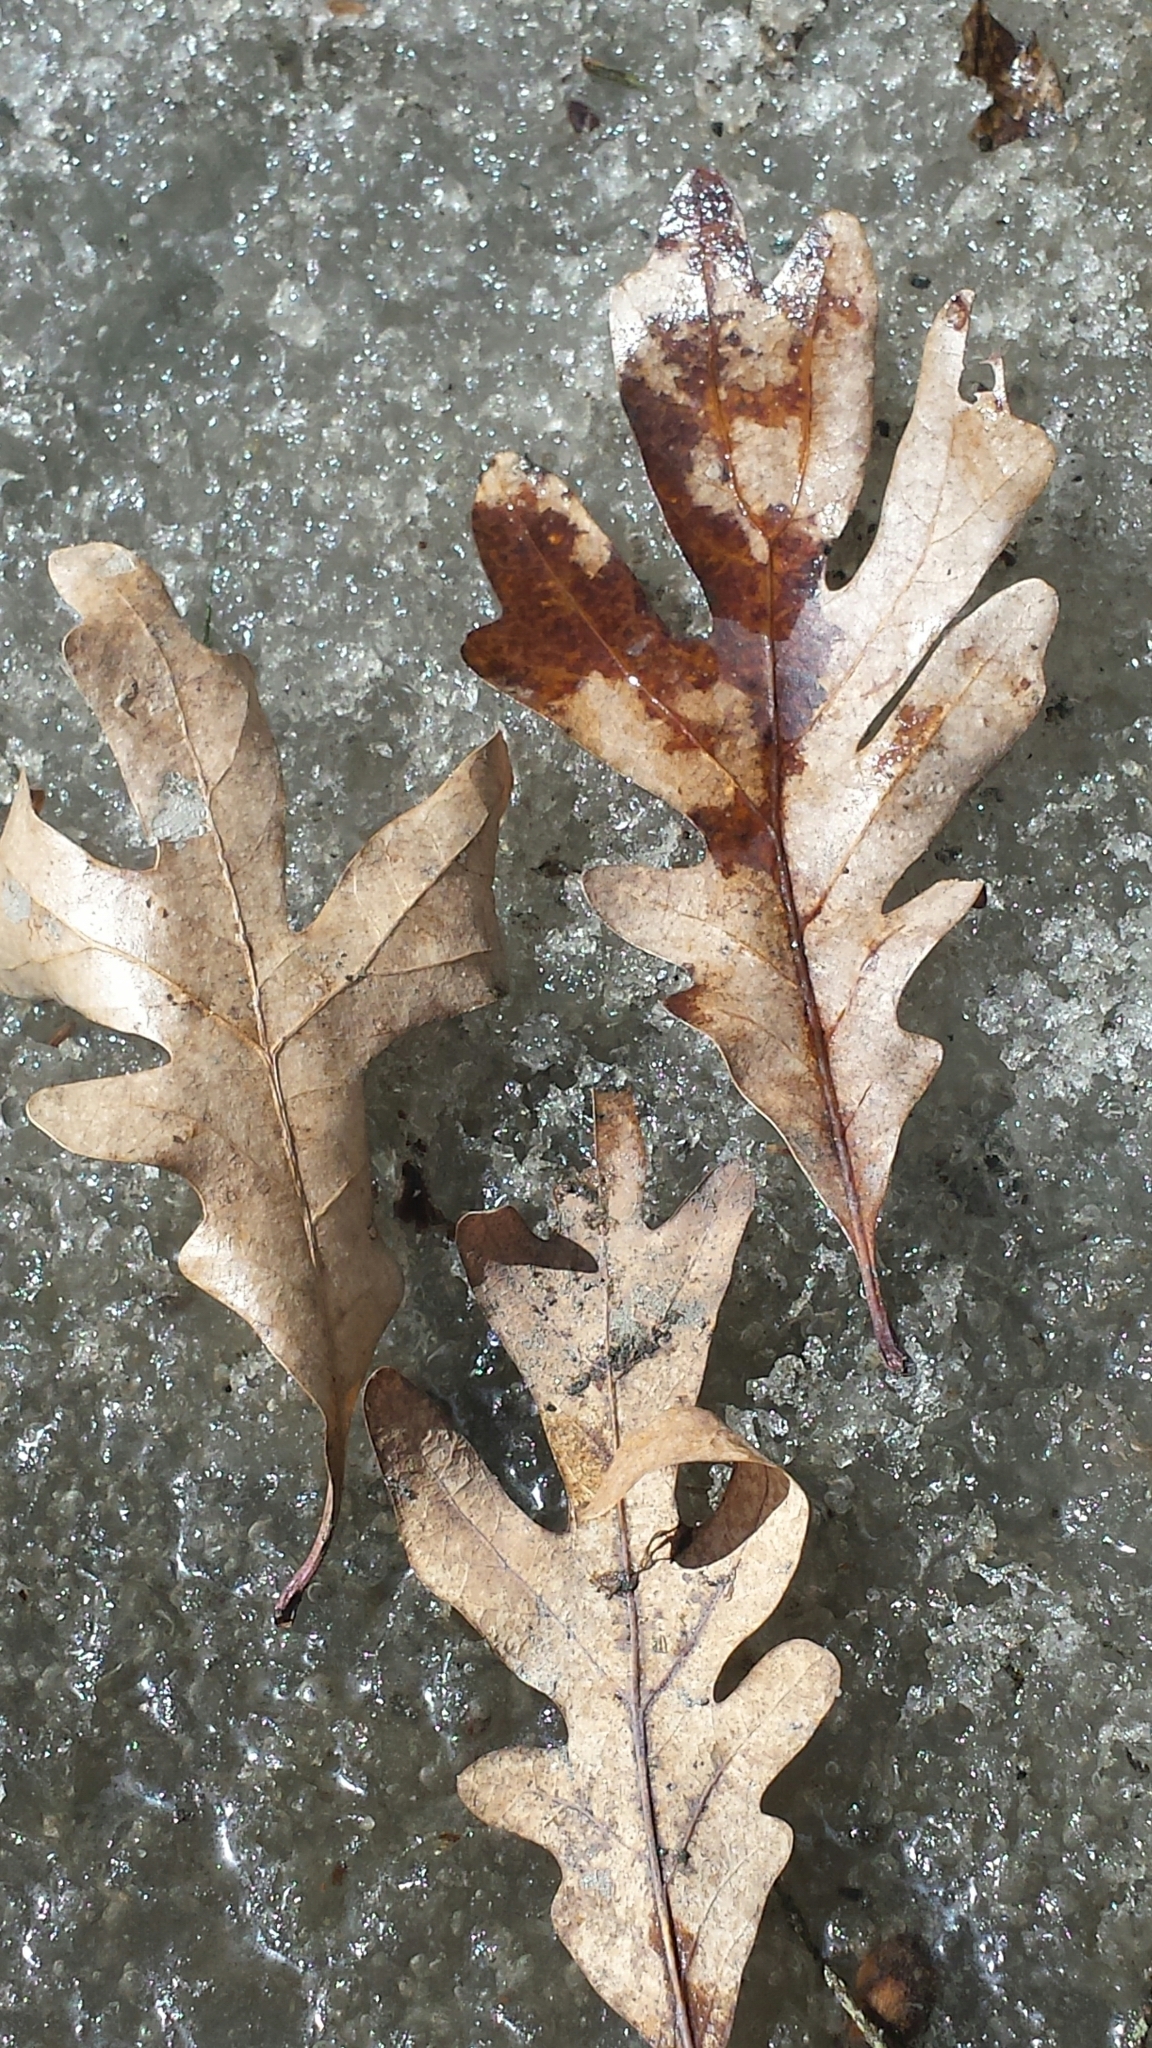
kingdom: Plantae
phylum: Tracheophyta
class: Magnoliopsida
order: Fagales
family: Fagaceae
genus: Quercus
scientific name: Quercus alba
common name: White oak
